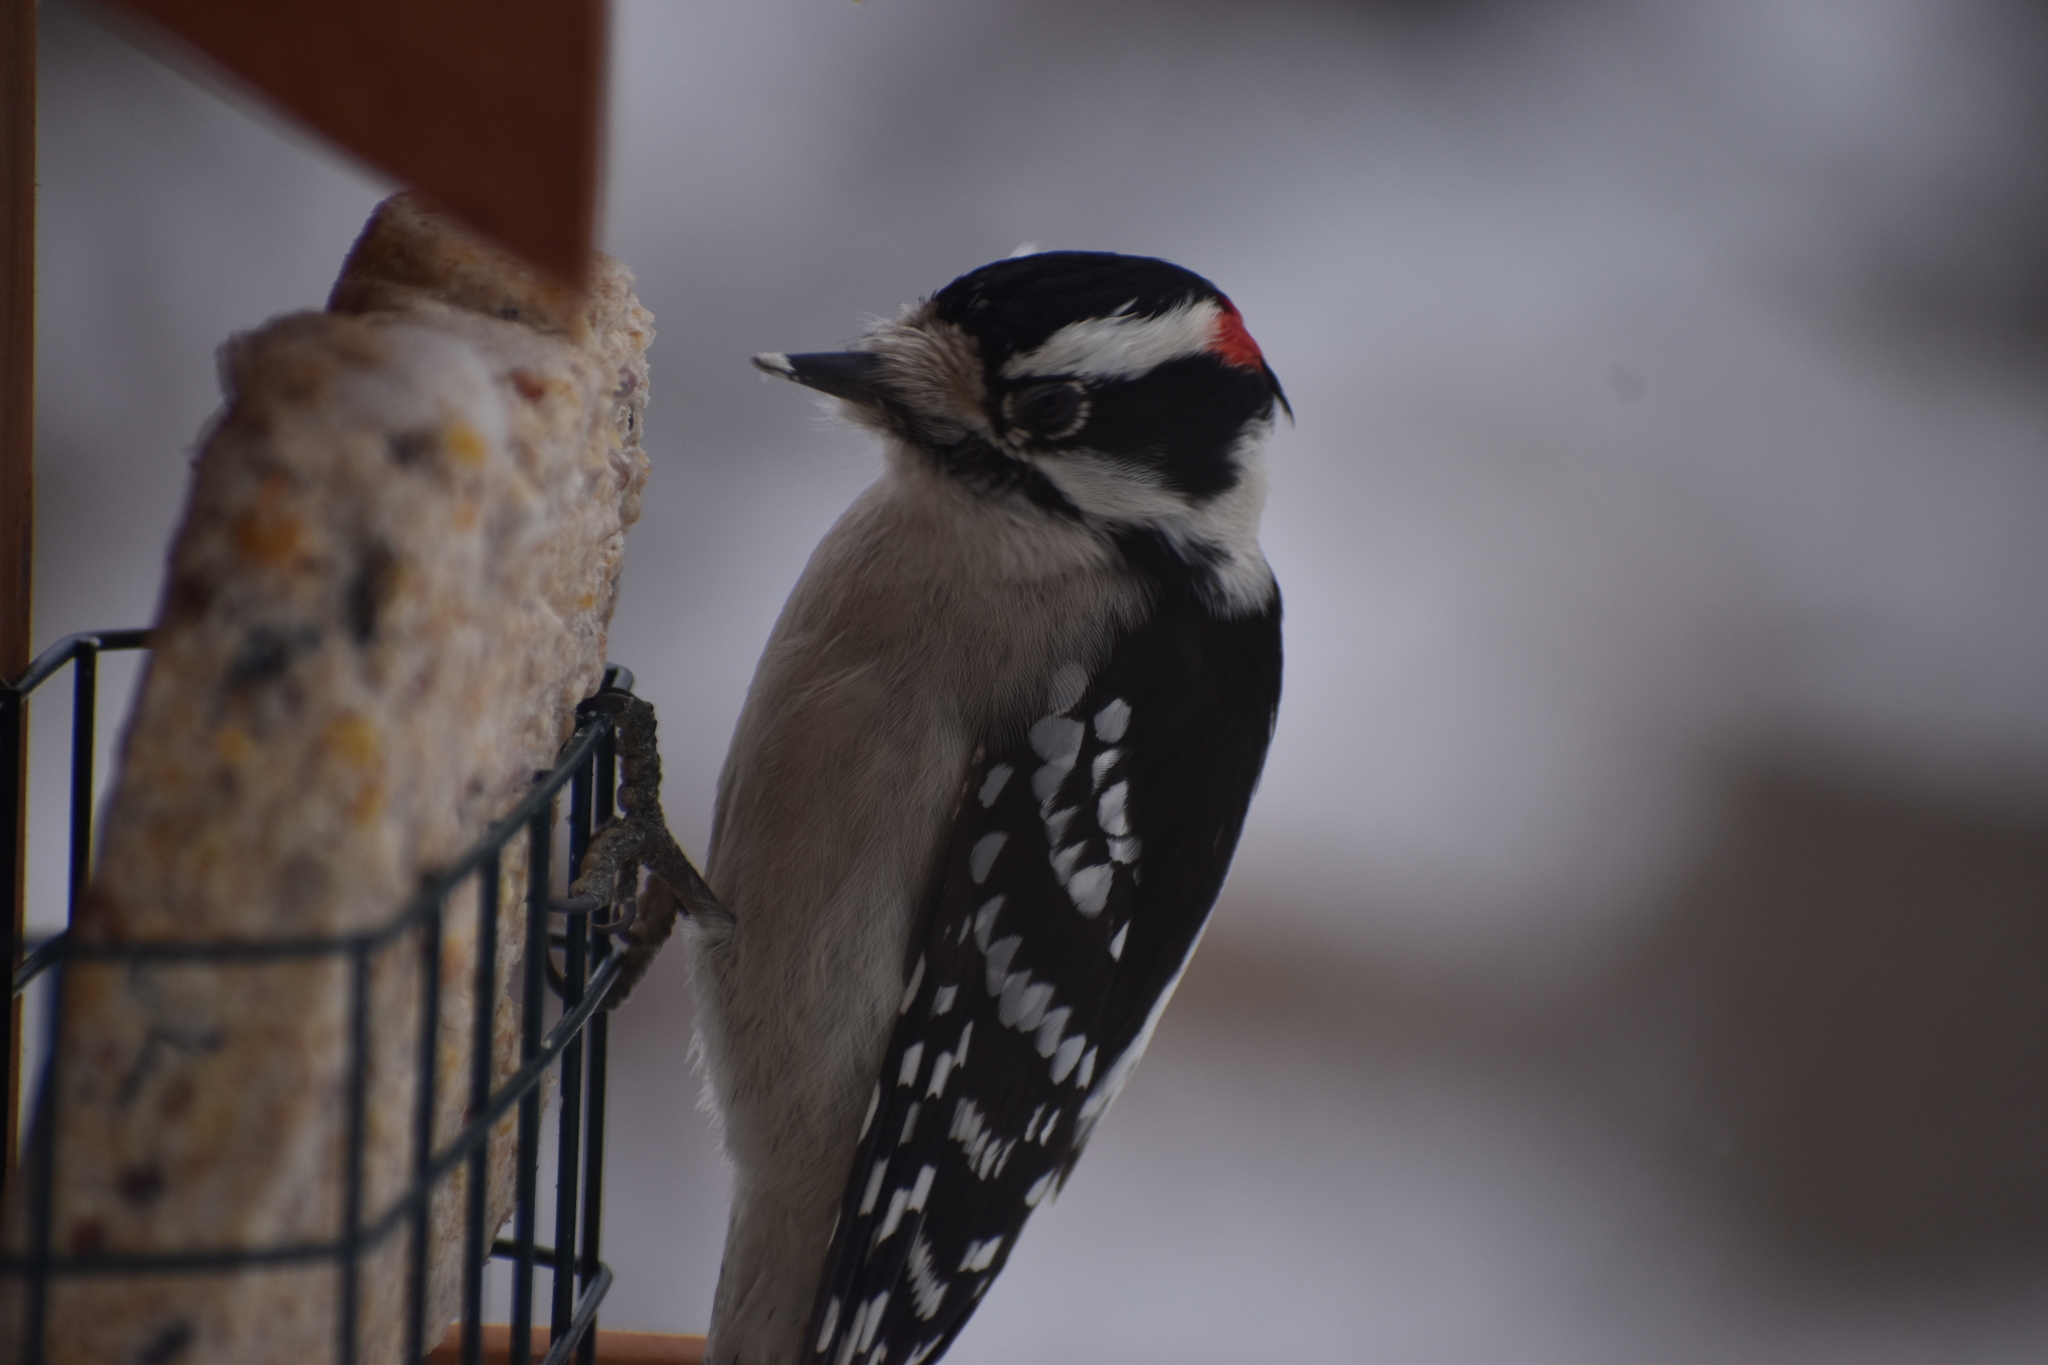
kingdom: Animalia
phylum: Chordata
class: Aves
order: Piciformes
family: Picidae
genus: Dryobates
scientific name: Dryobates pubescens
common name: Downy woodpecker
